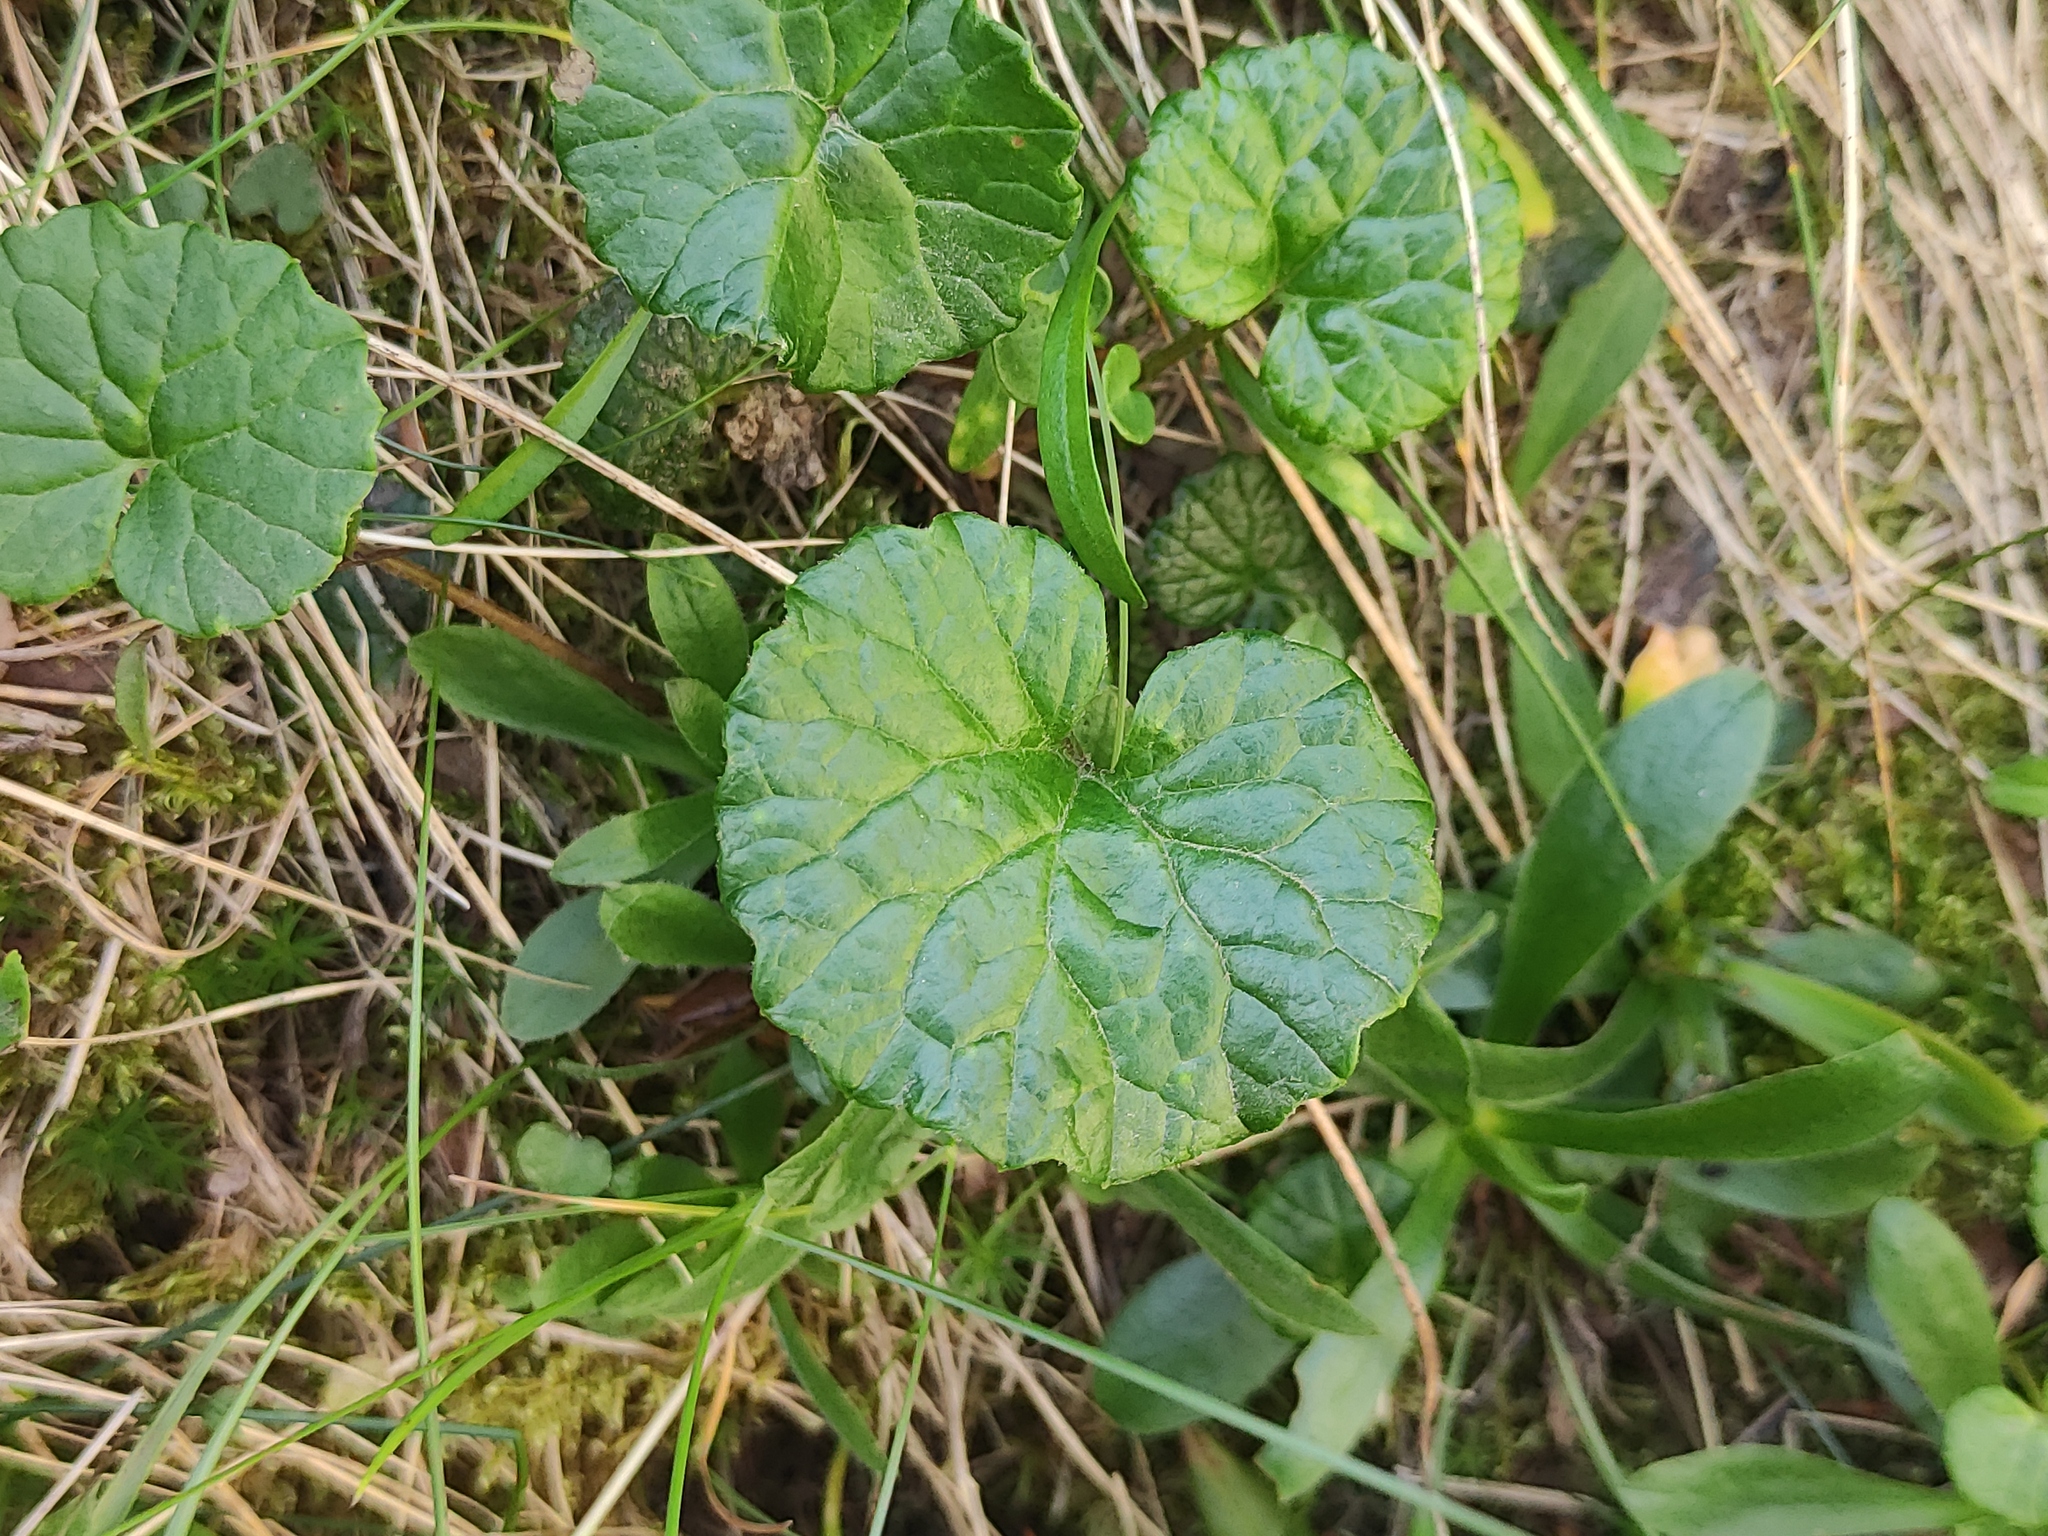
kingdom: Plantae
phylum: Tracheophyta
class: Magnoliopsida
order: Asterales
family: Asteraceae
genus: Homogyne
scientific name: Homogyne alpina
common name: Purple colt's-foot
